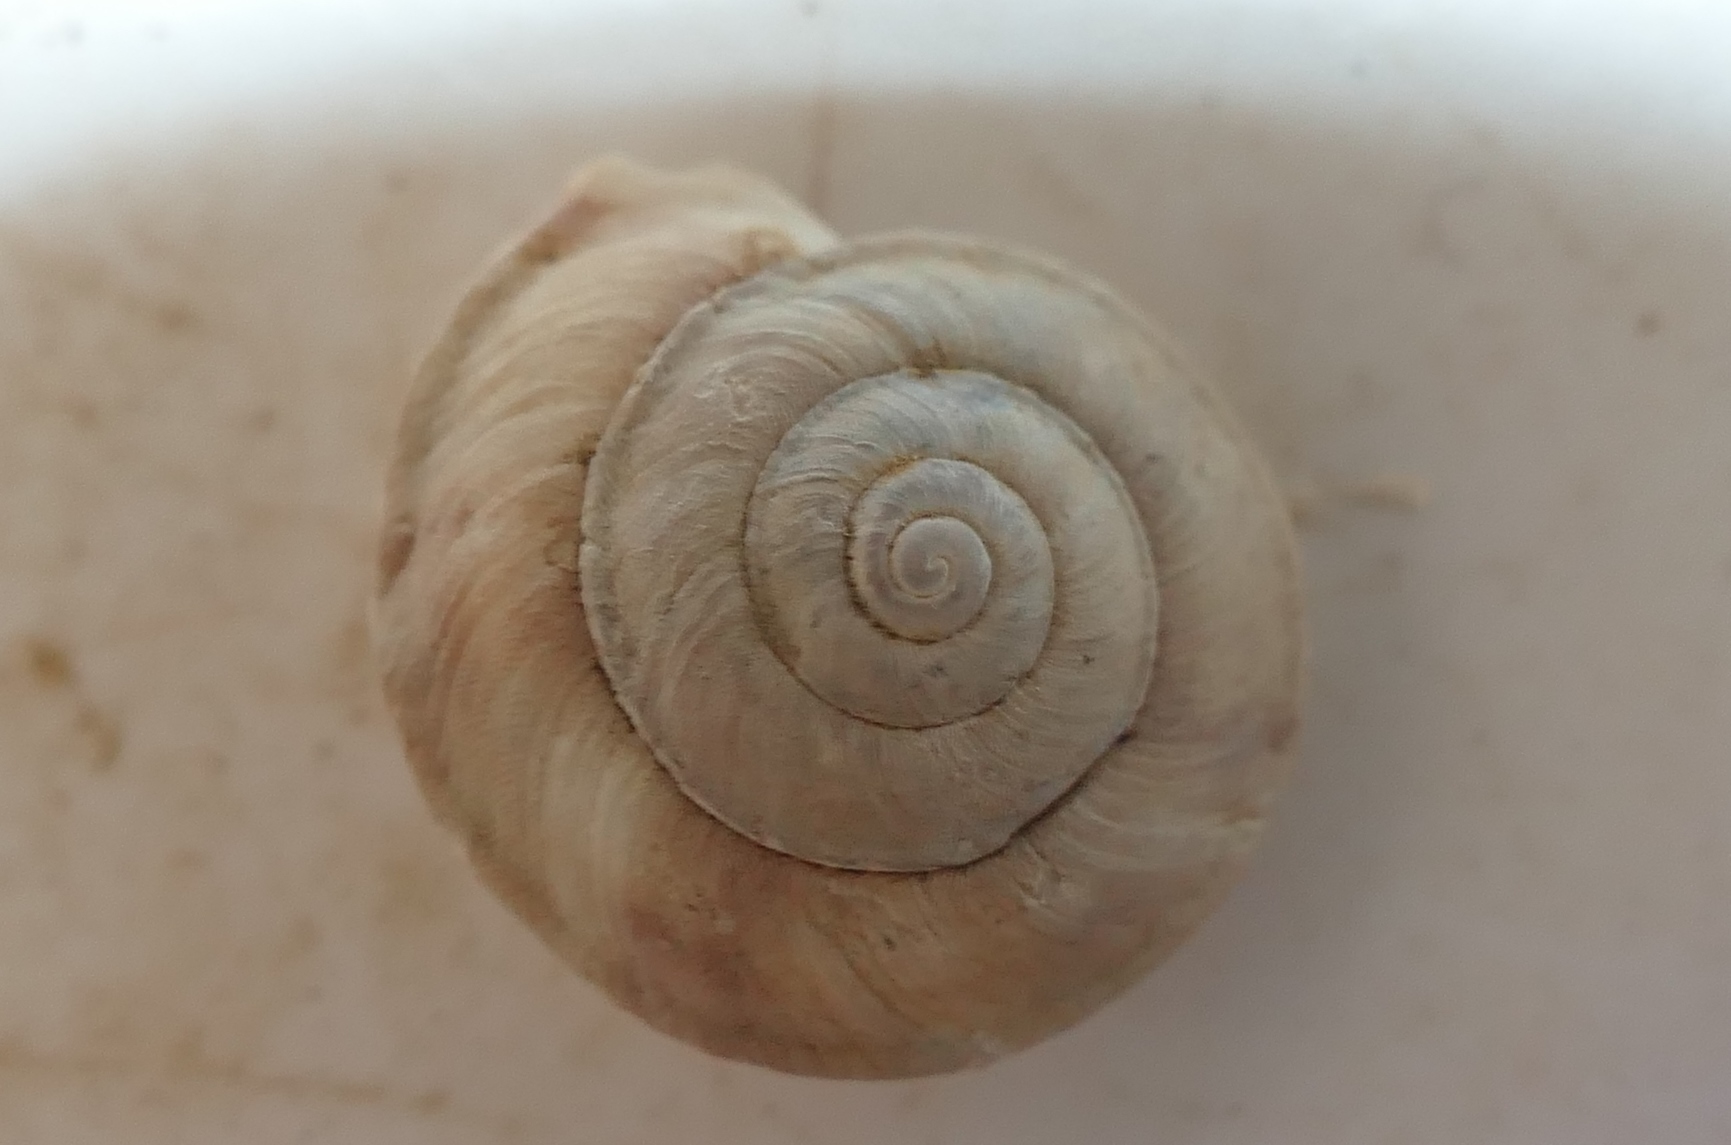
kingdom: Animalia
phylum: Mollusca
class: Gastropoda
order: Stylommatophora
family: Helicidae
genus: Helicigona
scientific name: Helicigona lapicida
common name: Lapidary snail
